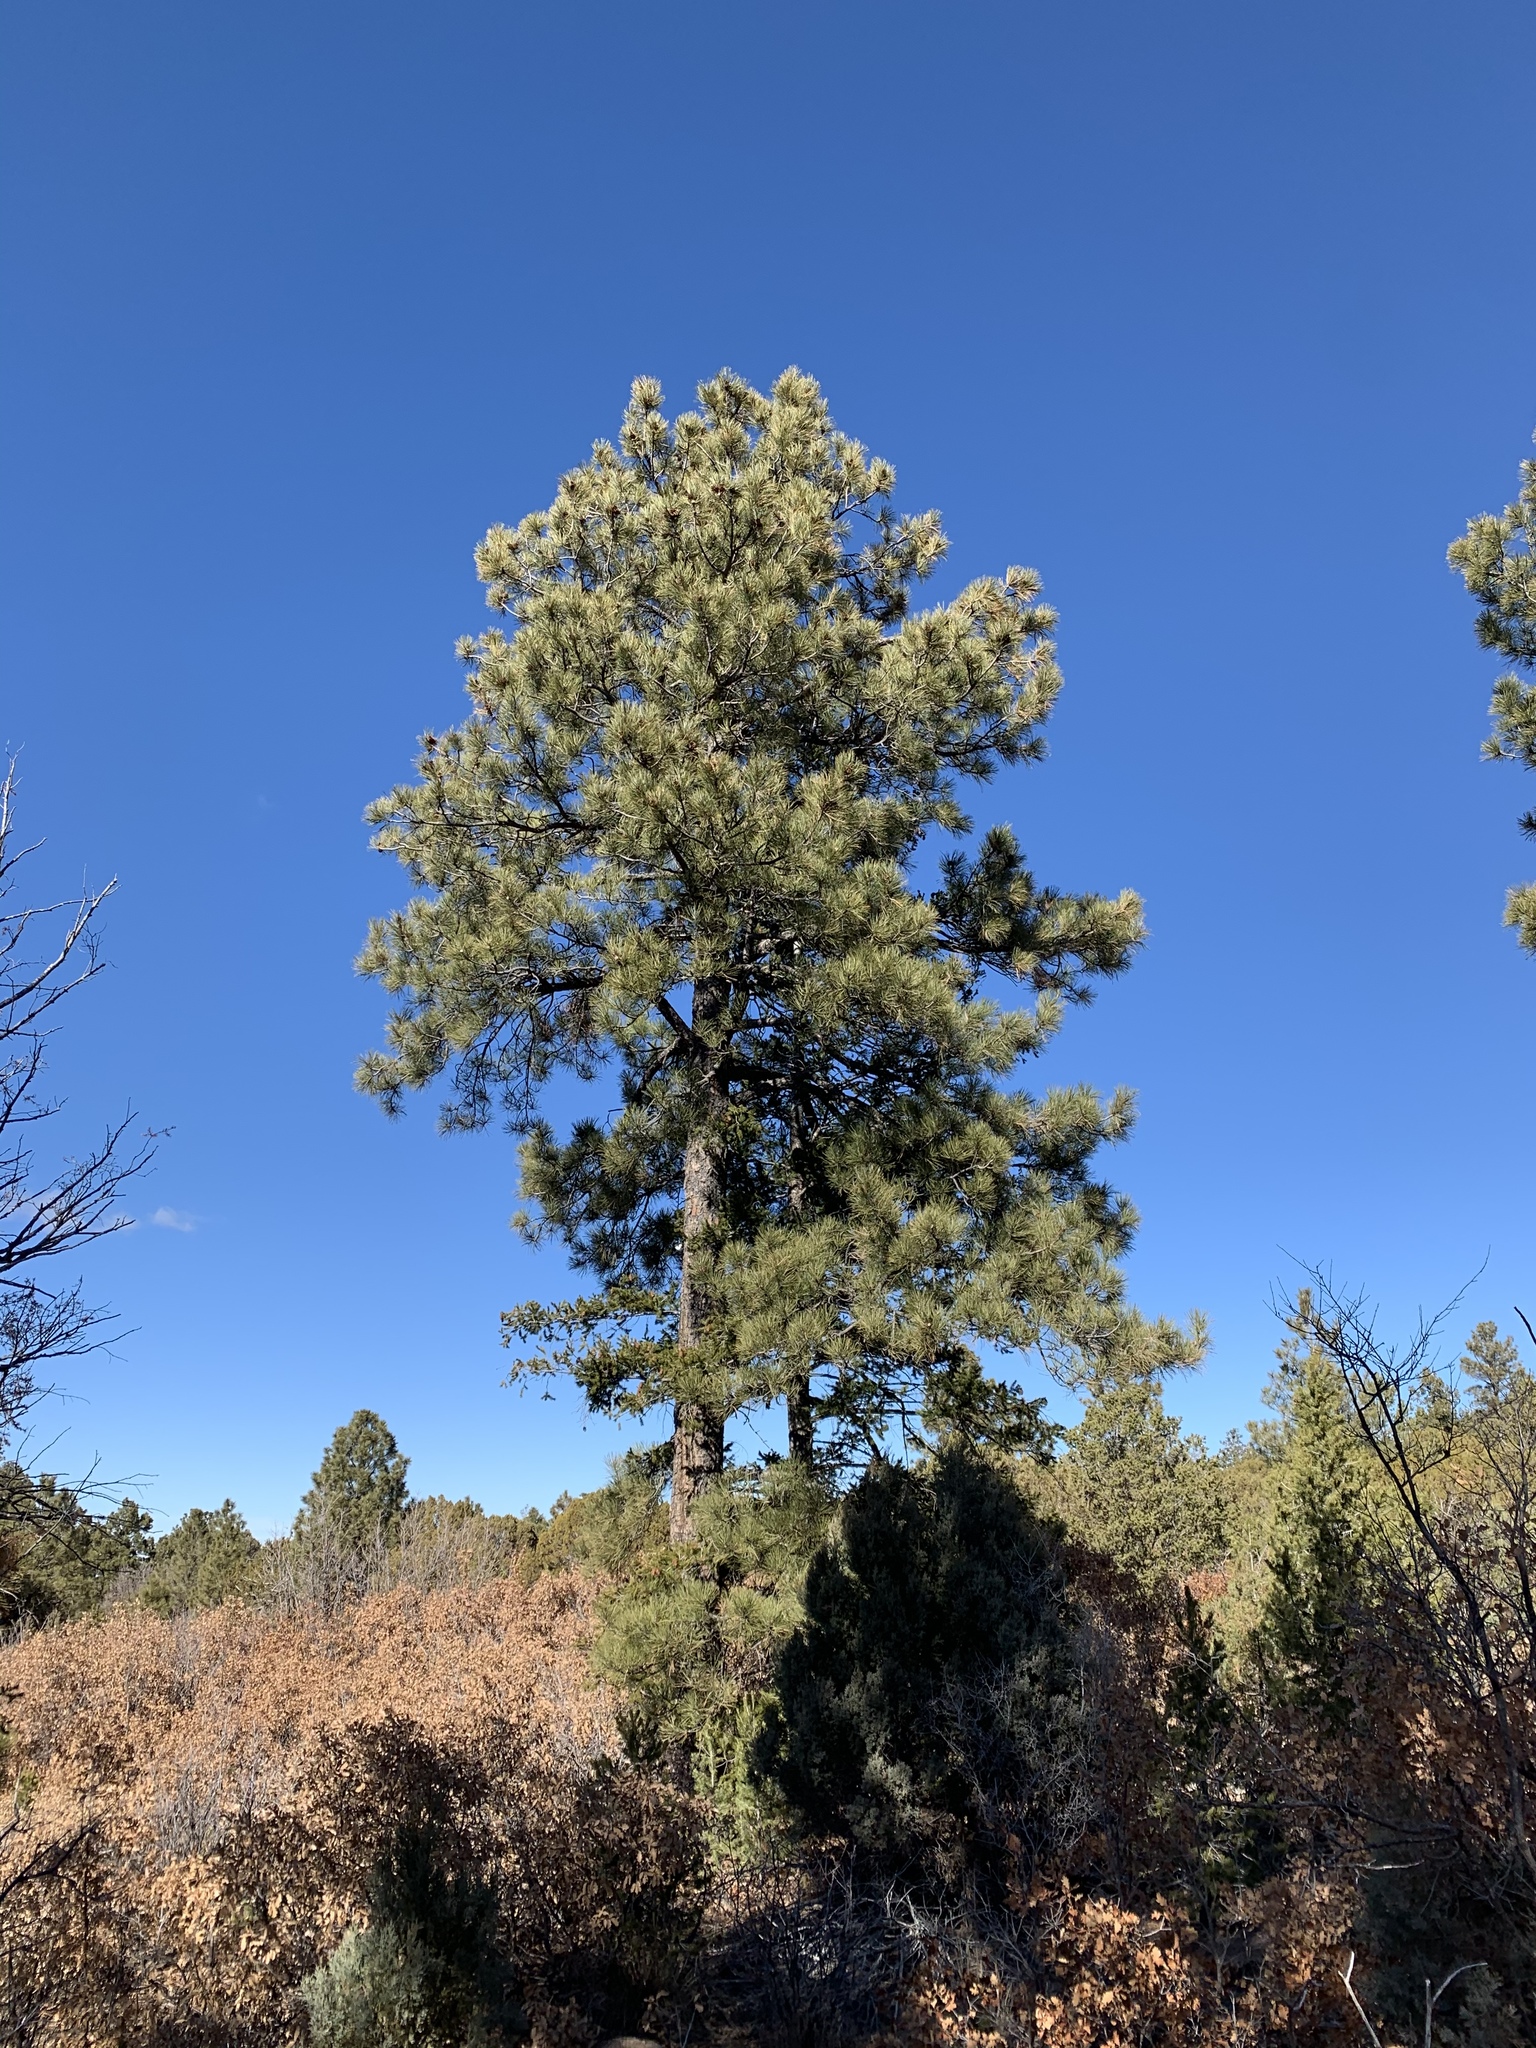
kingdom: Plantae
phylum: Tracheophyta
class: Pinopsida
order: Pinales
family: Pinaceae
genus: Pinus
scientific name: Pinus ponderosa
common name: Western yellow-pine
